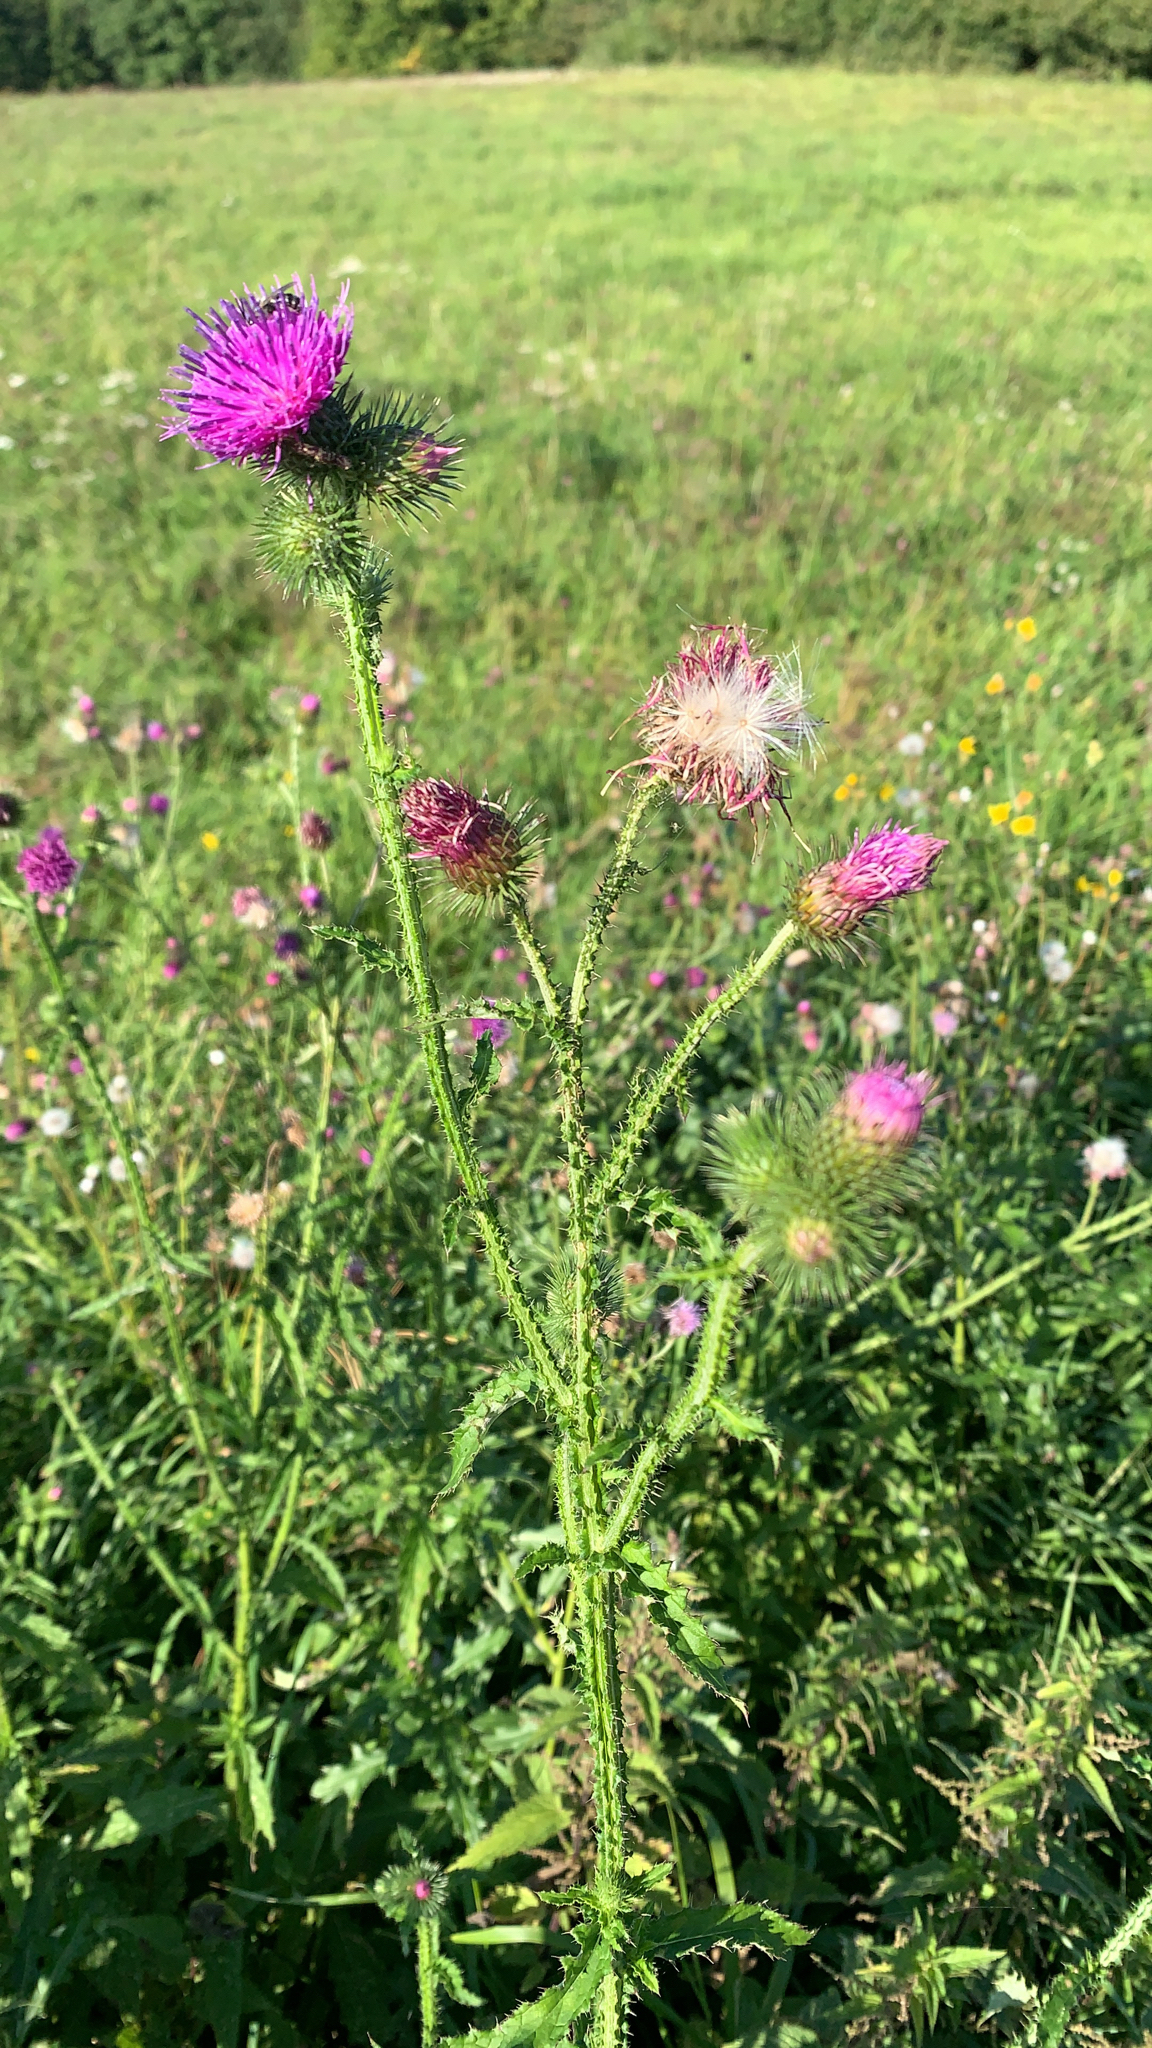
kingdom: Plantae
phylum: Tracheophyta
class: Magnoliopsida
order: Asterales
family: Asteraceae
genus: Carduus
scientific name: Carduus acanthoides
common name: Plumeless thistle
